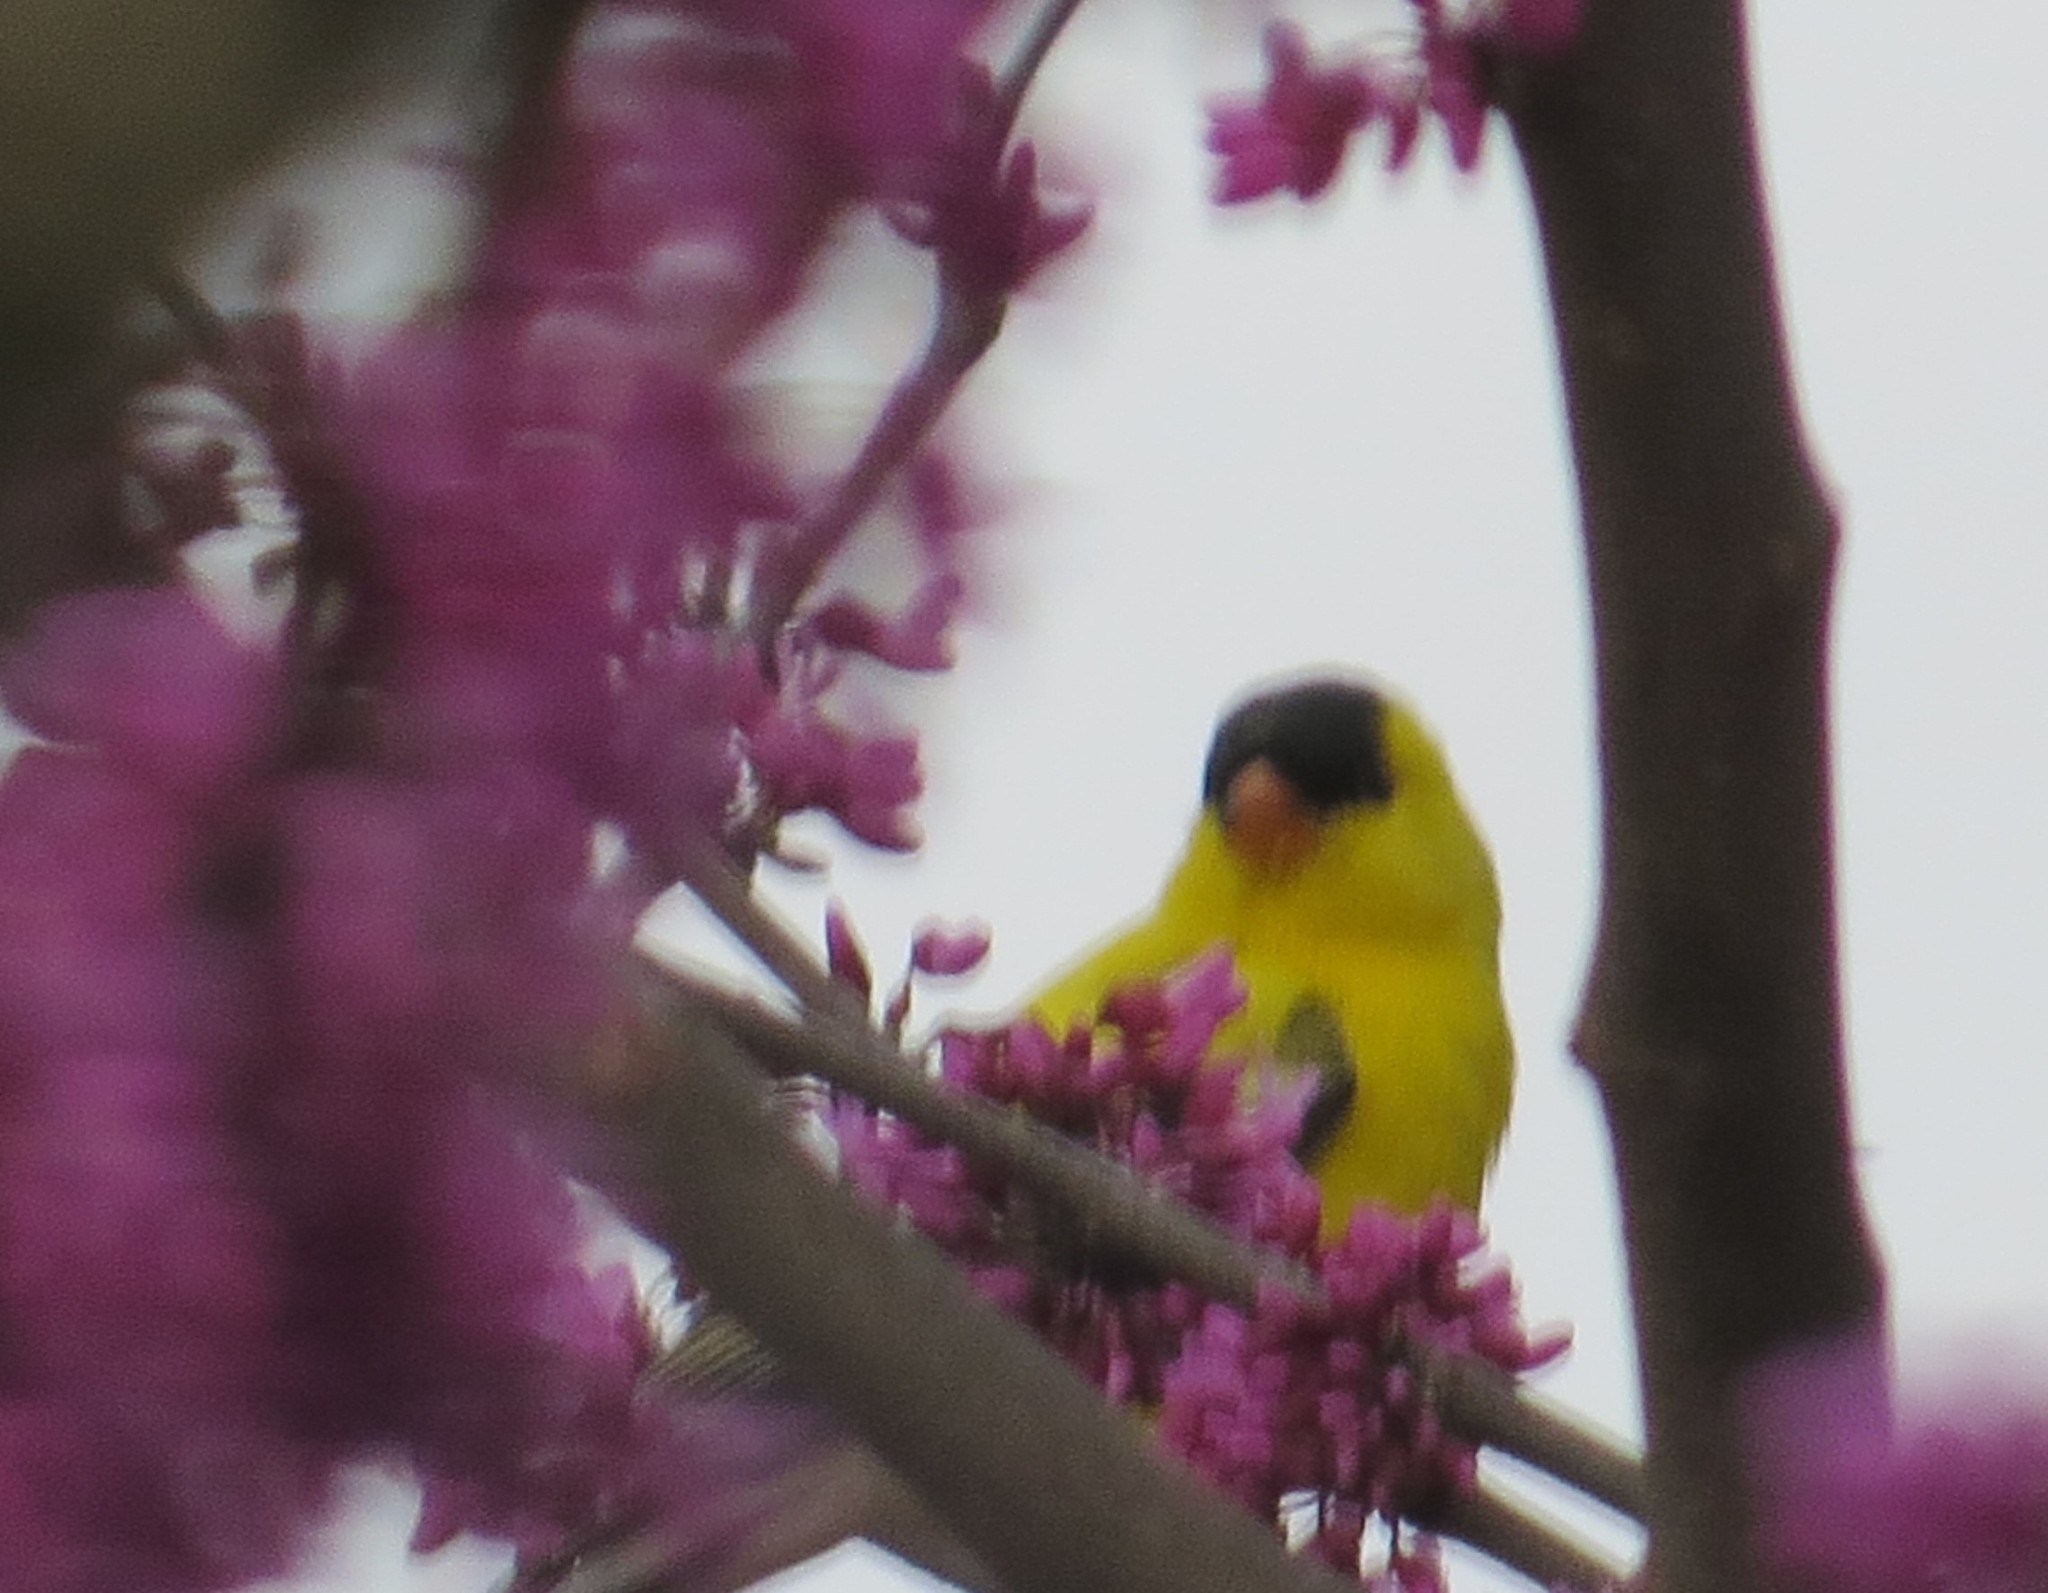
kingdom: Animalia
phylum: Chordata
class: Aves
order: Passeriformes
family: Fringillidae
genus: Spinus
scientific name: Spinus tristis
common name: American goldfinch
